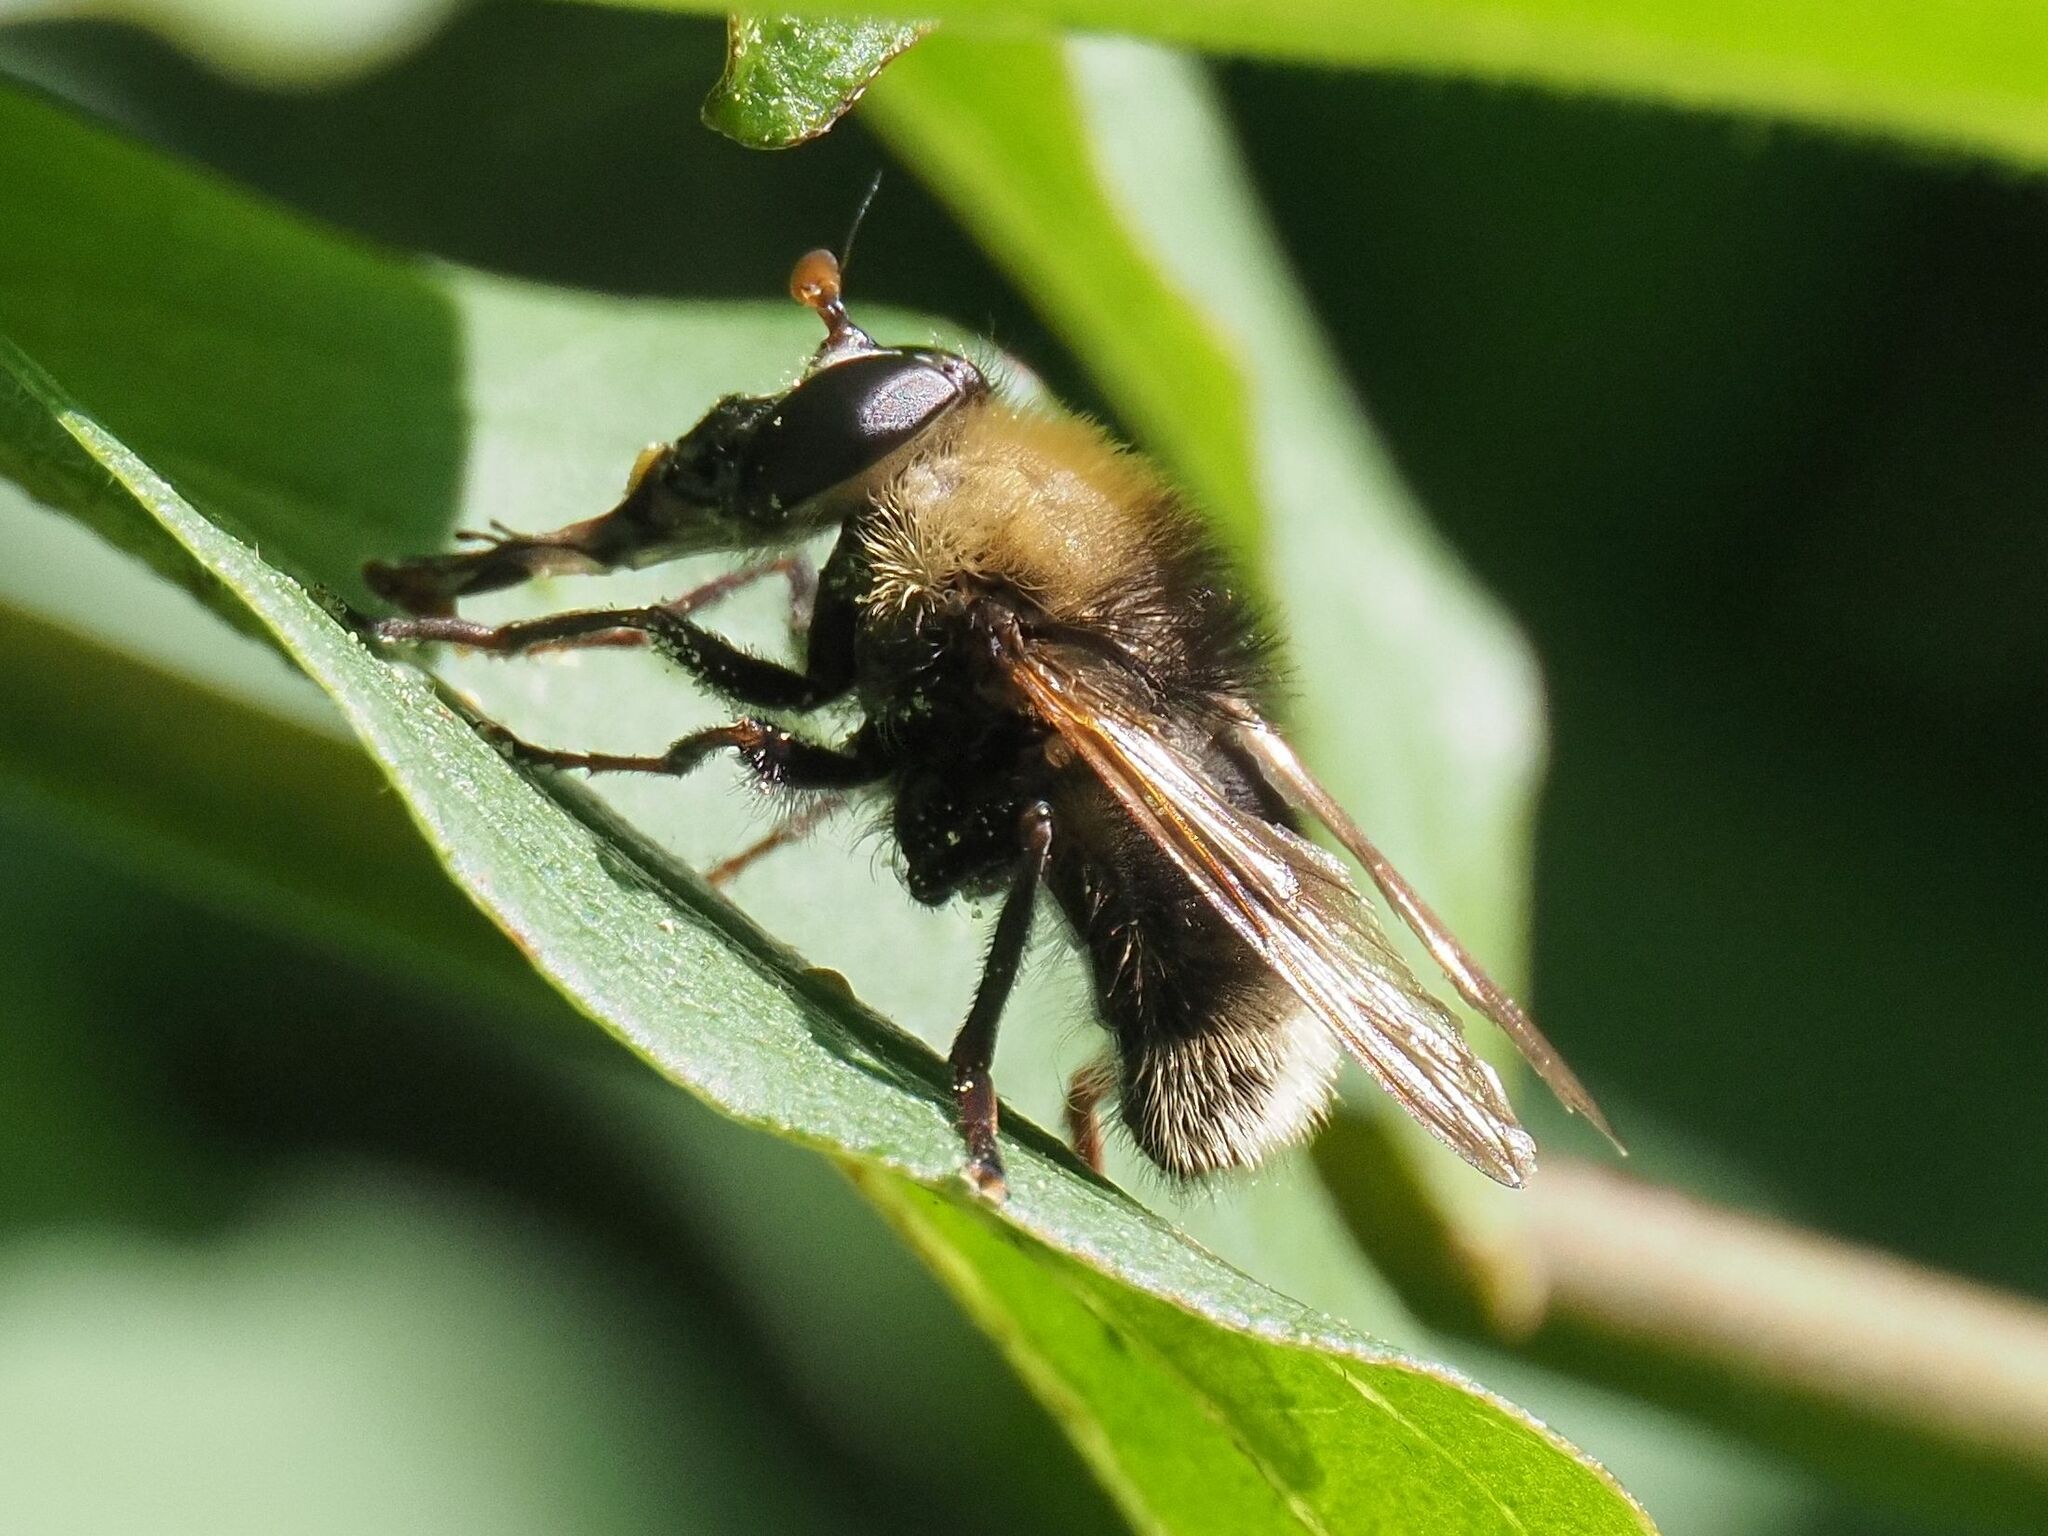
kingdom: Animalia
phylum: Arthropoda
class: Insecta
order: Diptera
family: Syrphidae
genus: Criorhina
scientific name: Criorhina berberina
